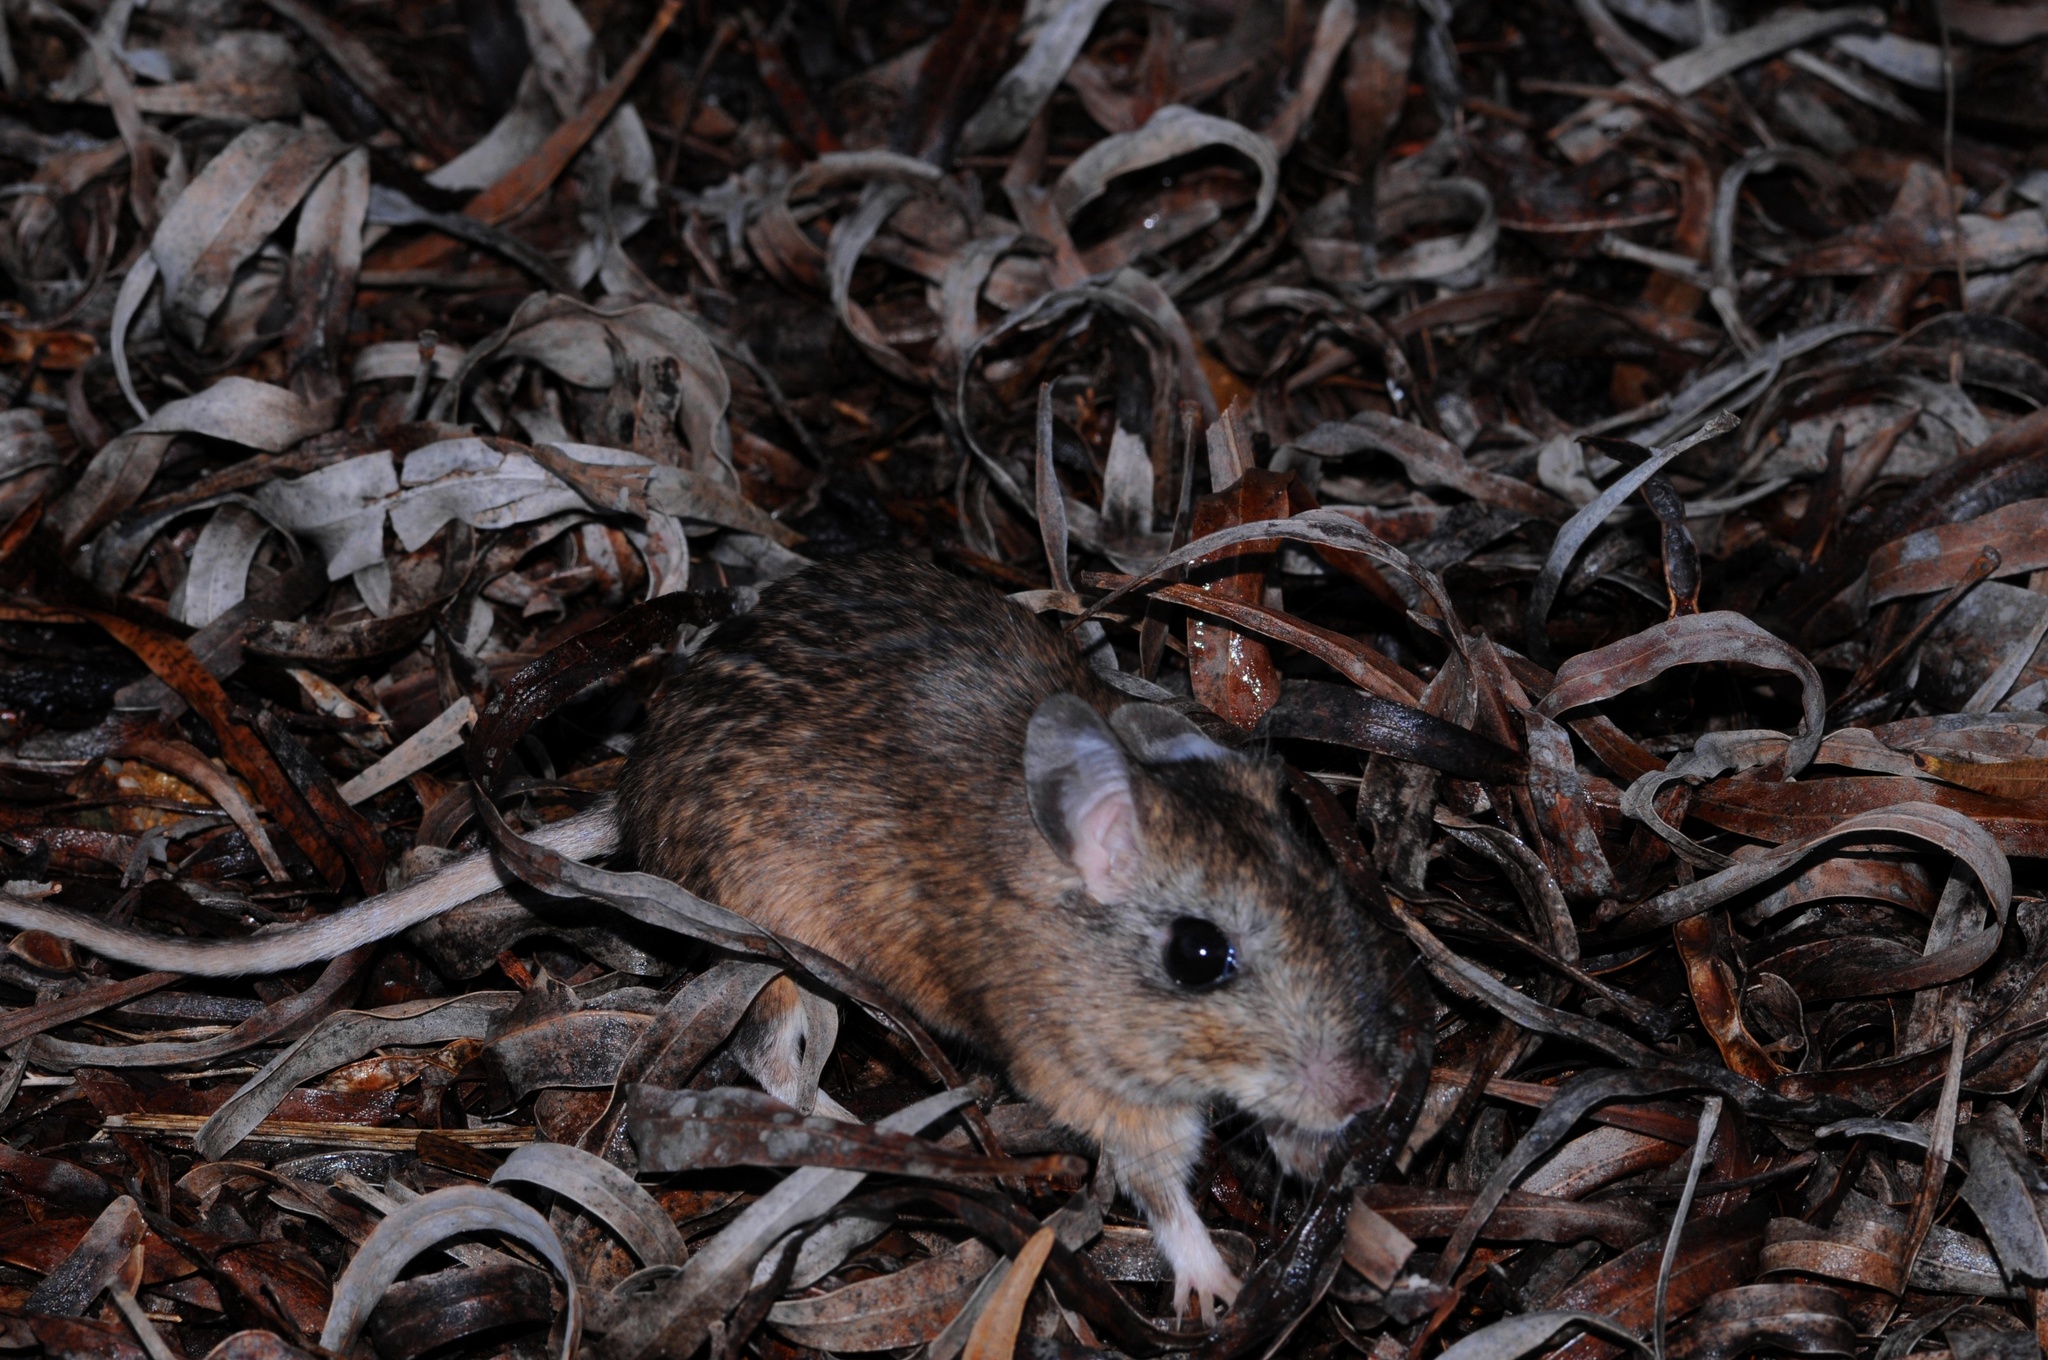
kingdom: Animalia
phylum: Chordata
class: Mammalia
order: Rodentia
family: Muridae
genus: Gerbilliscus
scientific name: Gerbilliscus afer
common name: Cape gerbil
